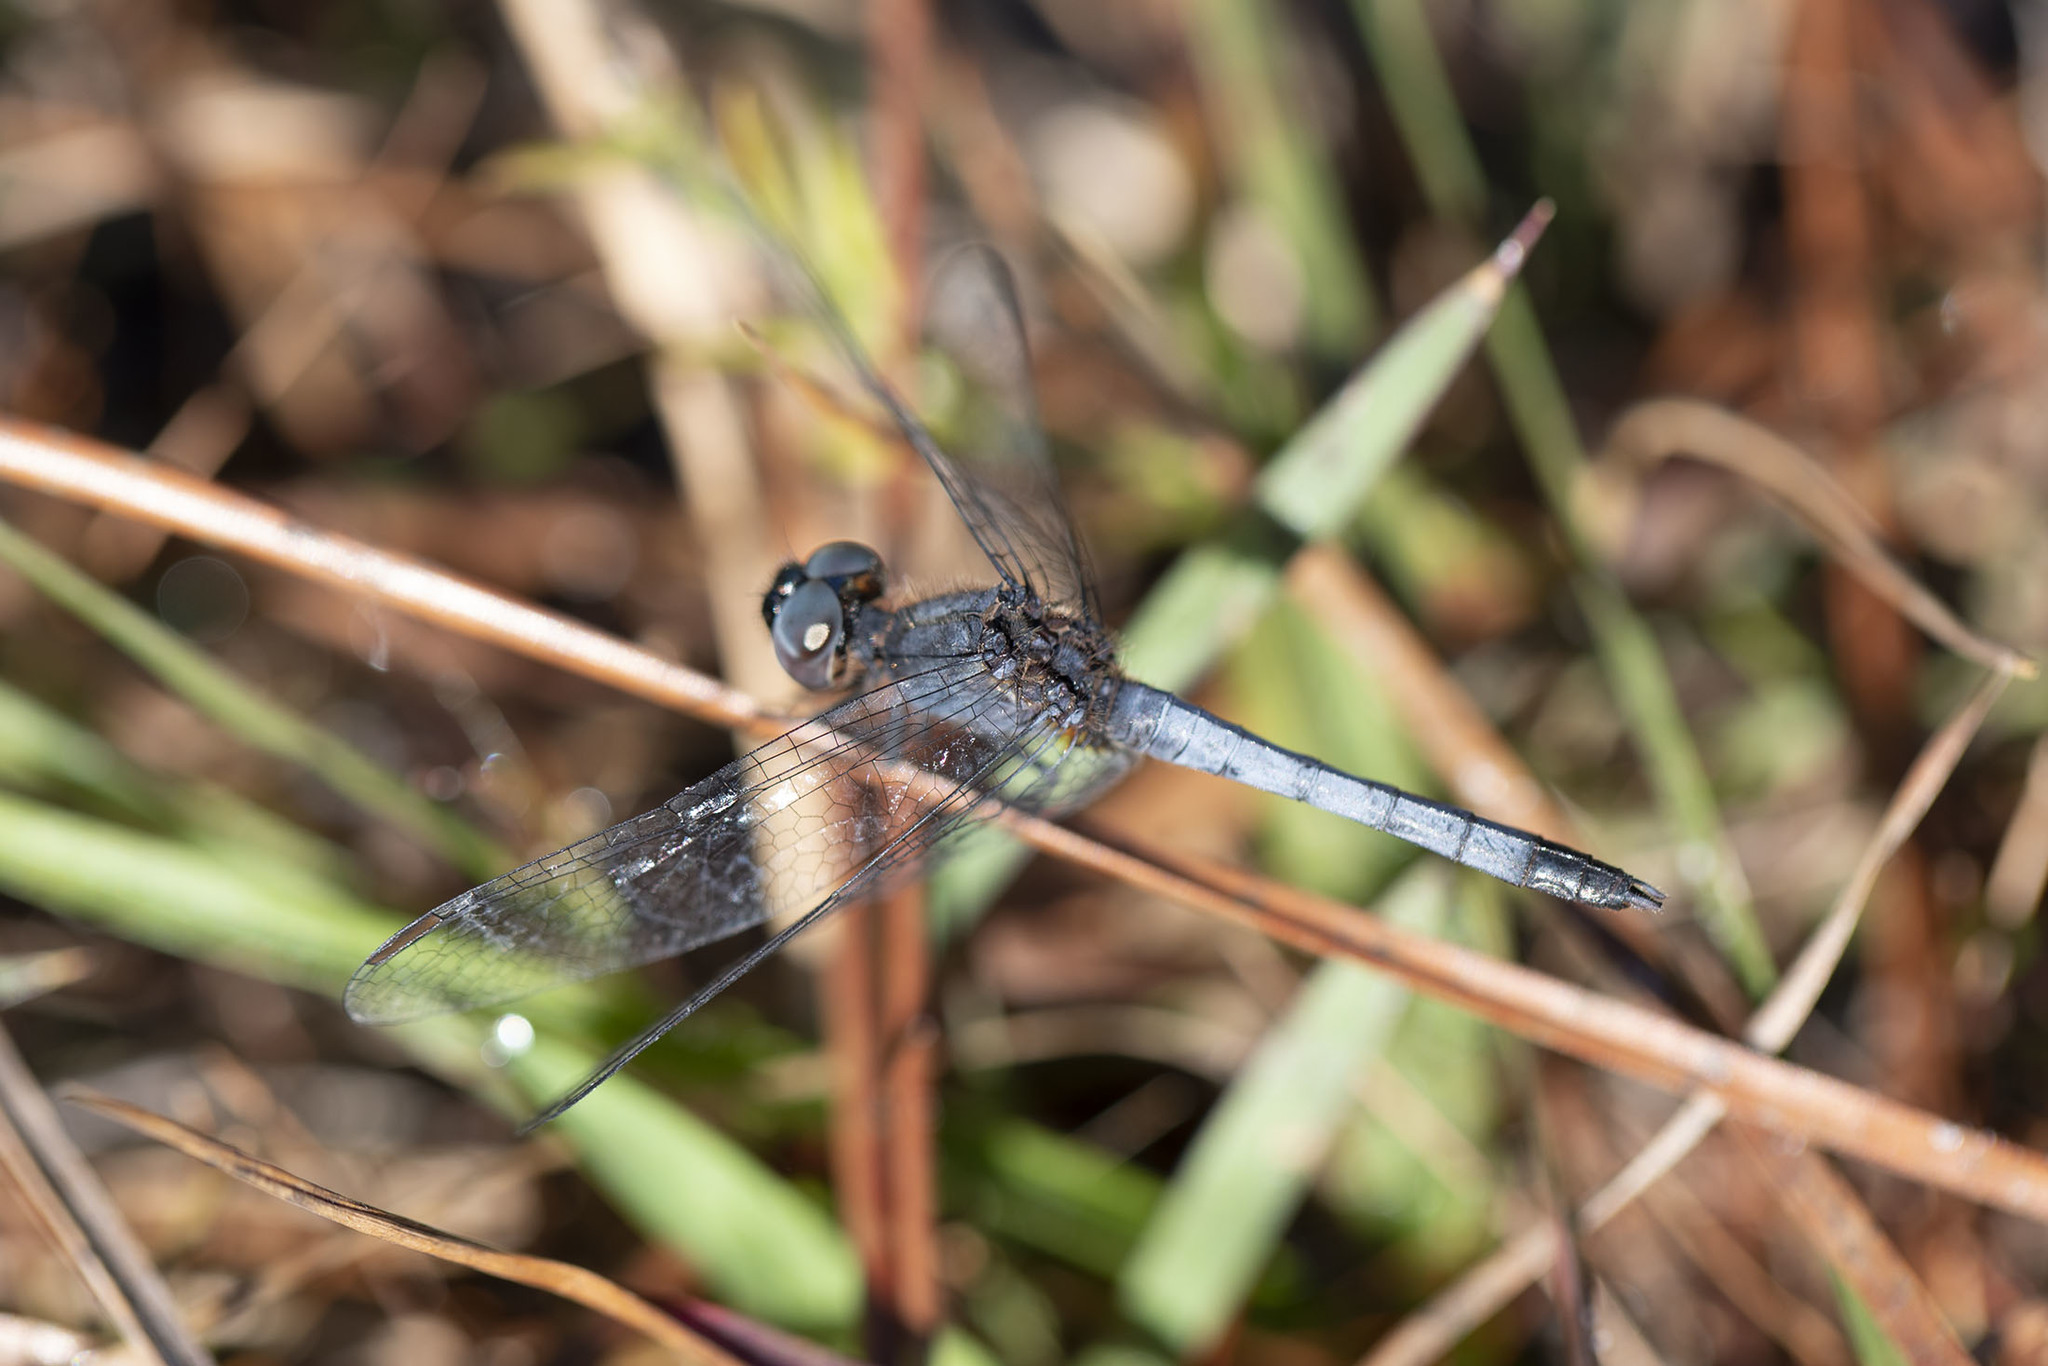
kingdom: Animalia
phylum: Arthropoda
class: Insecta
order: Odonata
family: Libellulidae
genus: Erythrodiplax
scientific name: Erythrodiplax minuscula
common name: Little blue dragonlet
